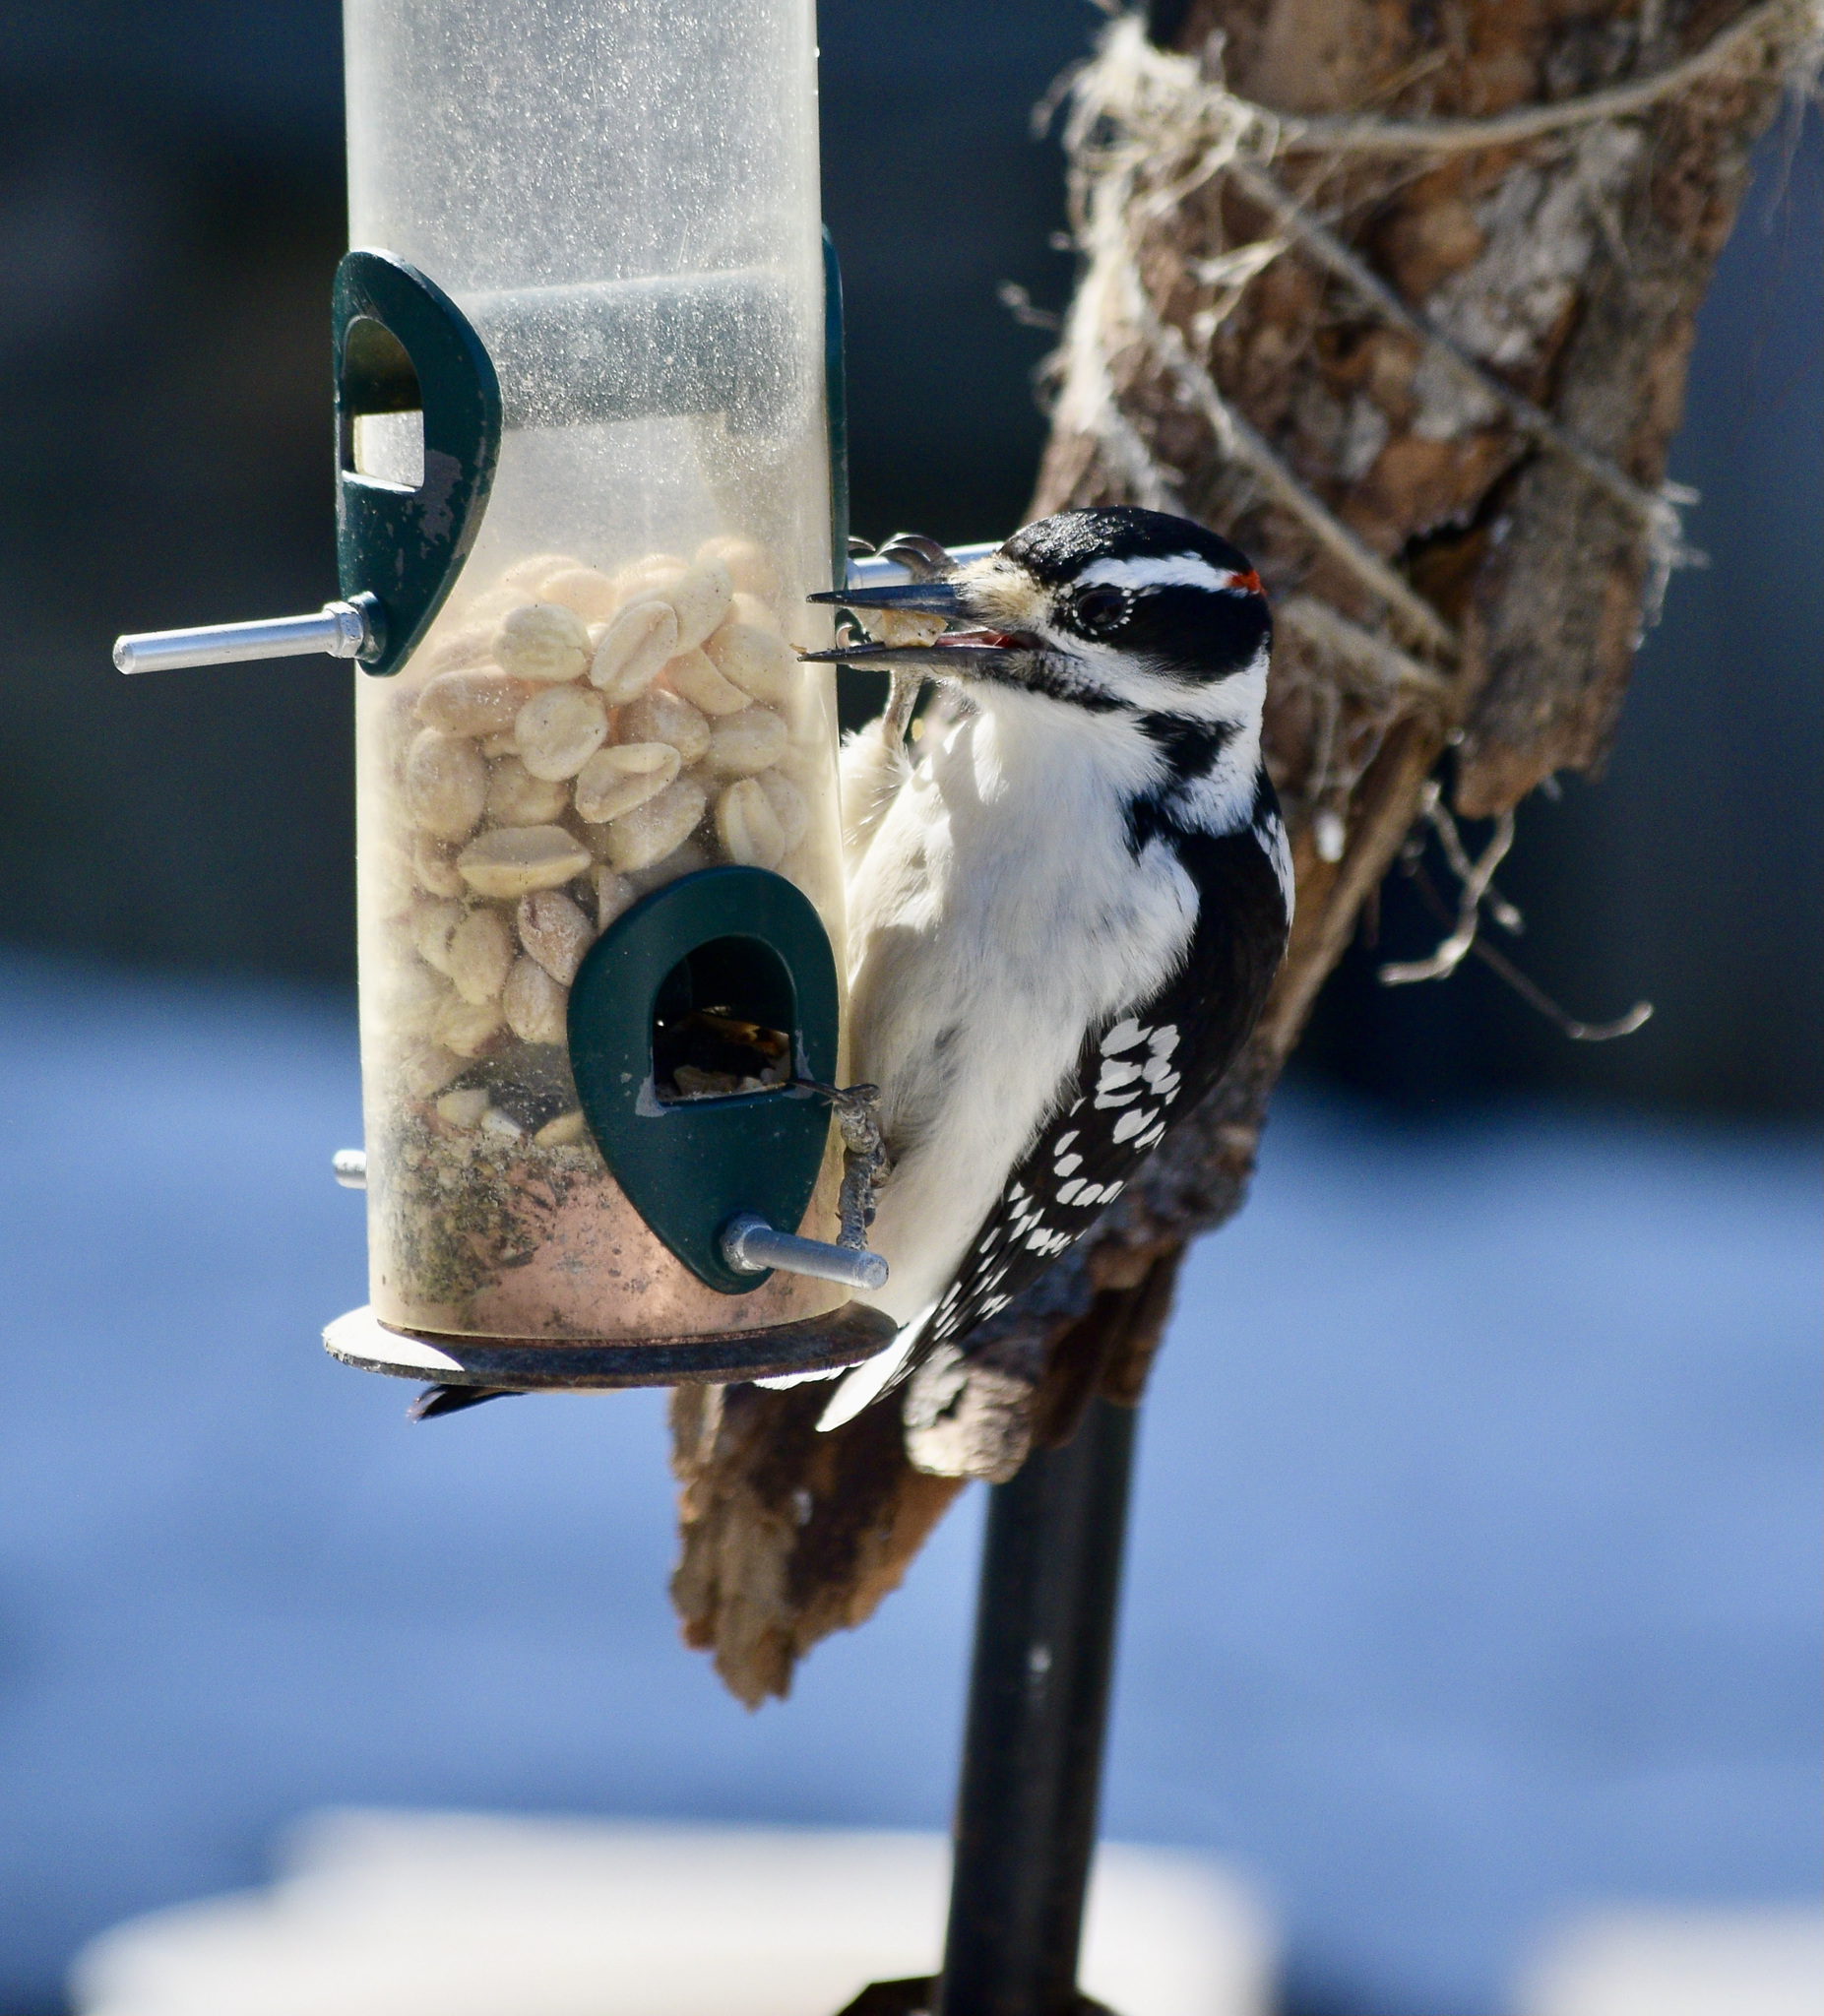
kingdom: Animalia
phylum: Chordata
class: Aves
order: Piciformes
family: Picidae
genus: Leuconotopicus
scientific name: Leuconotopicus villosus
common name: Hairy woodpecker
